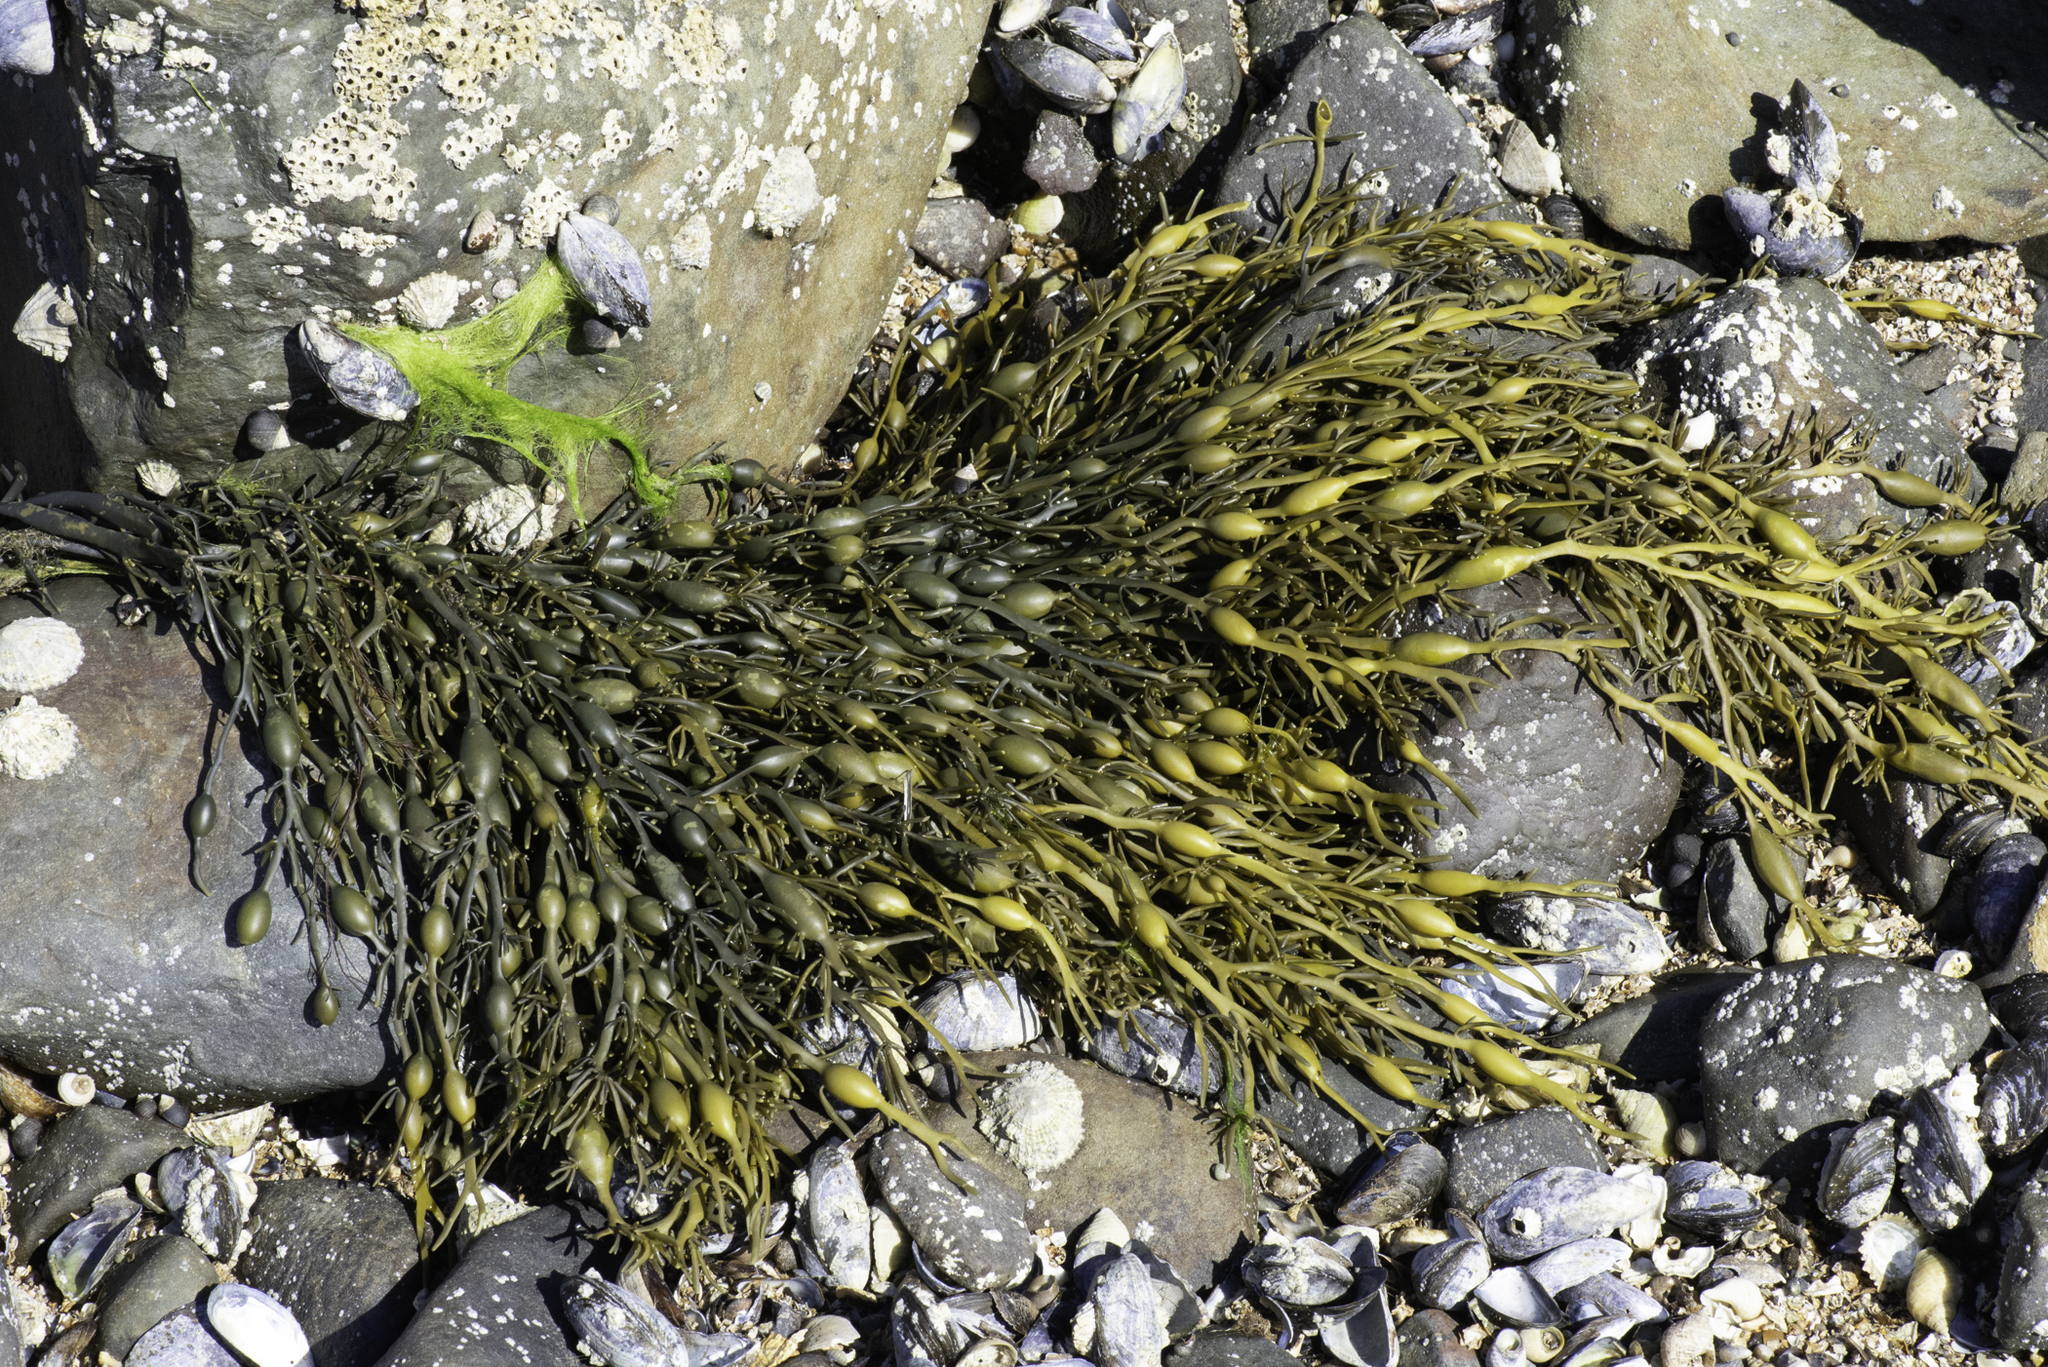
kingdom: Chromista
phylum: Ochrophyta
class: Phaeophyceae
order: Fucales
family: Fucaceae
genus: Ascophyllum
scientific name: Ascophyllum nodosum
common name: Knotted wrack
